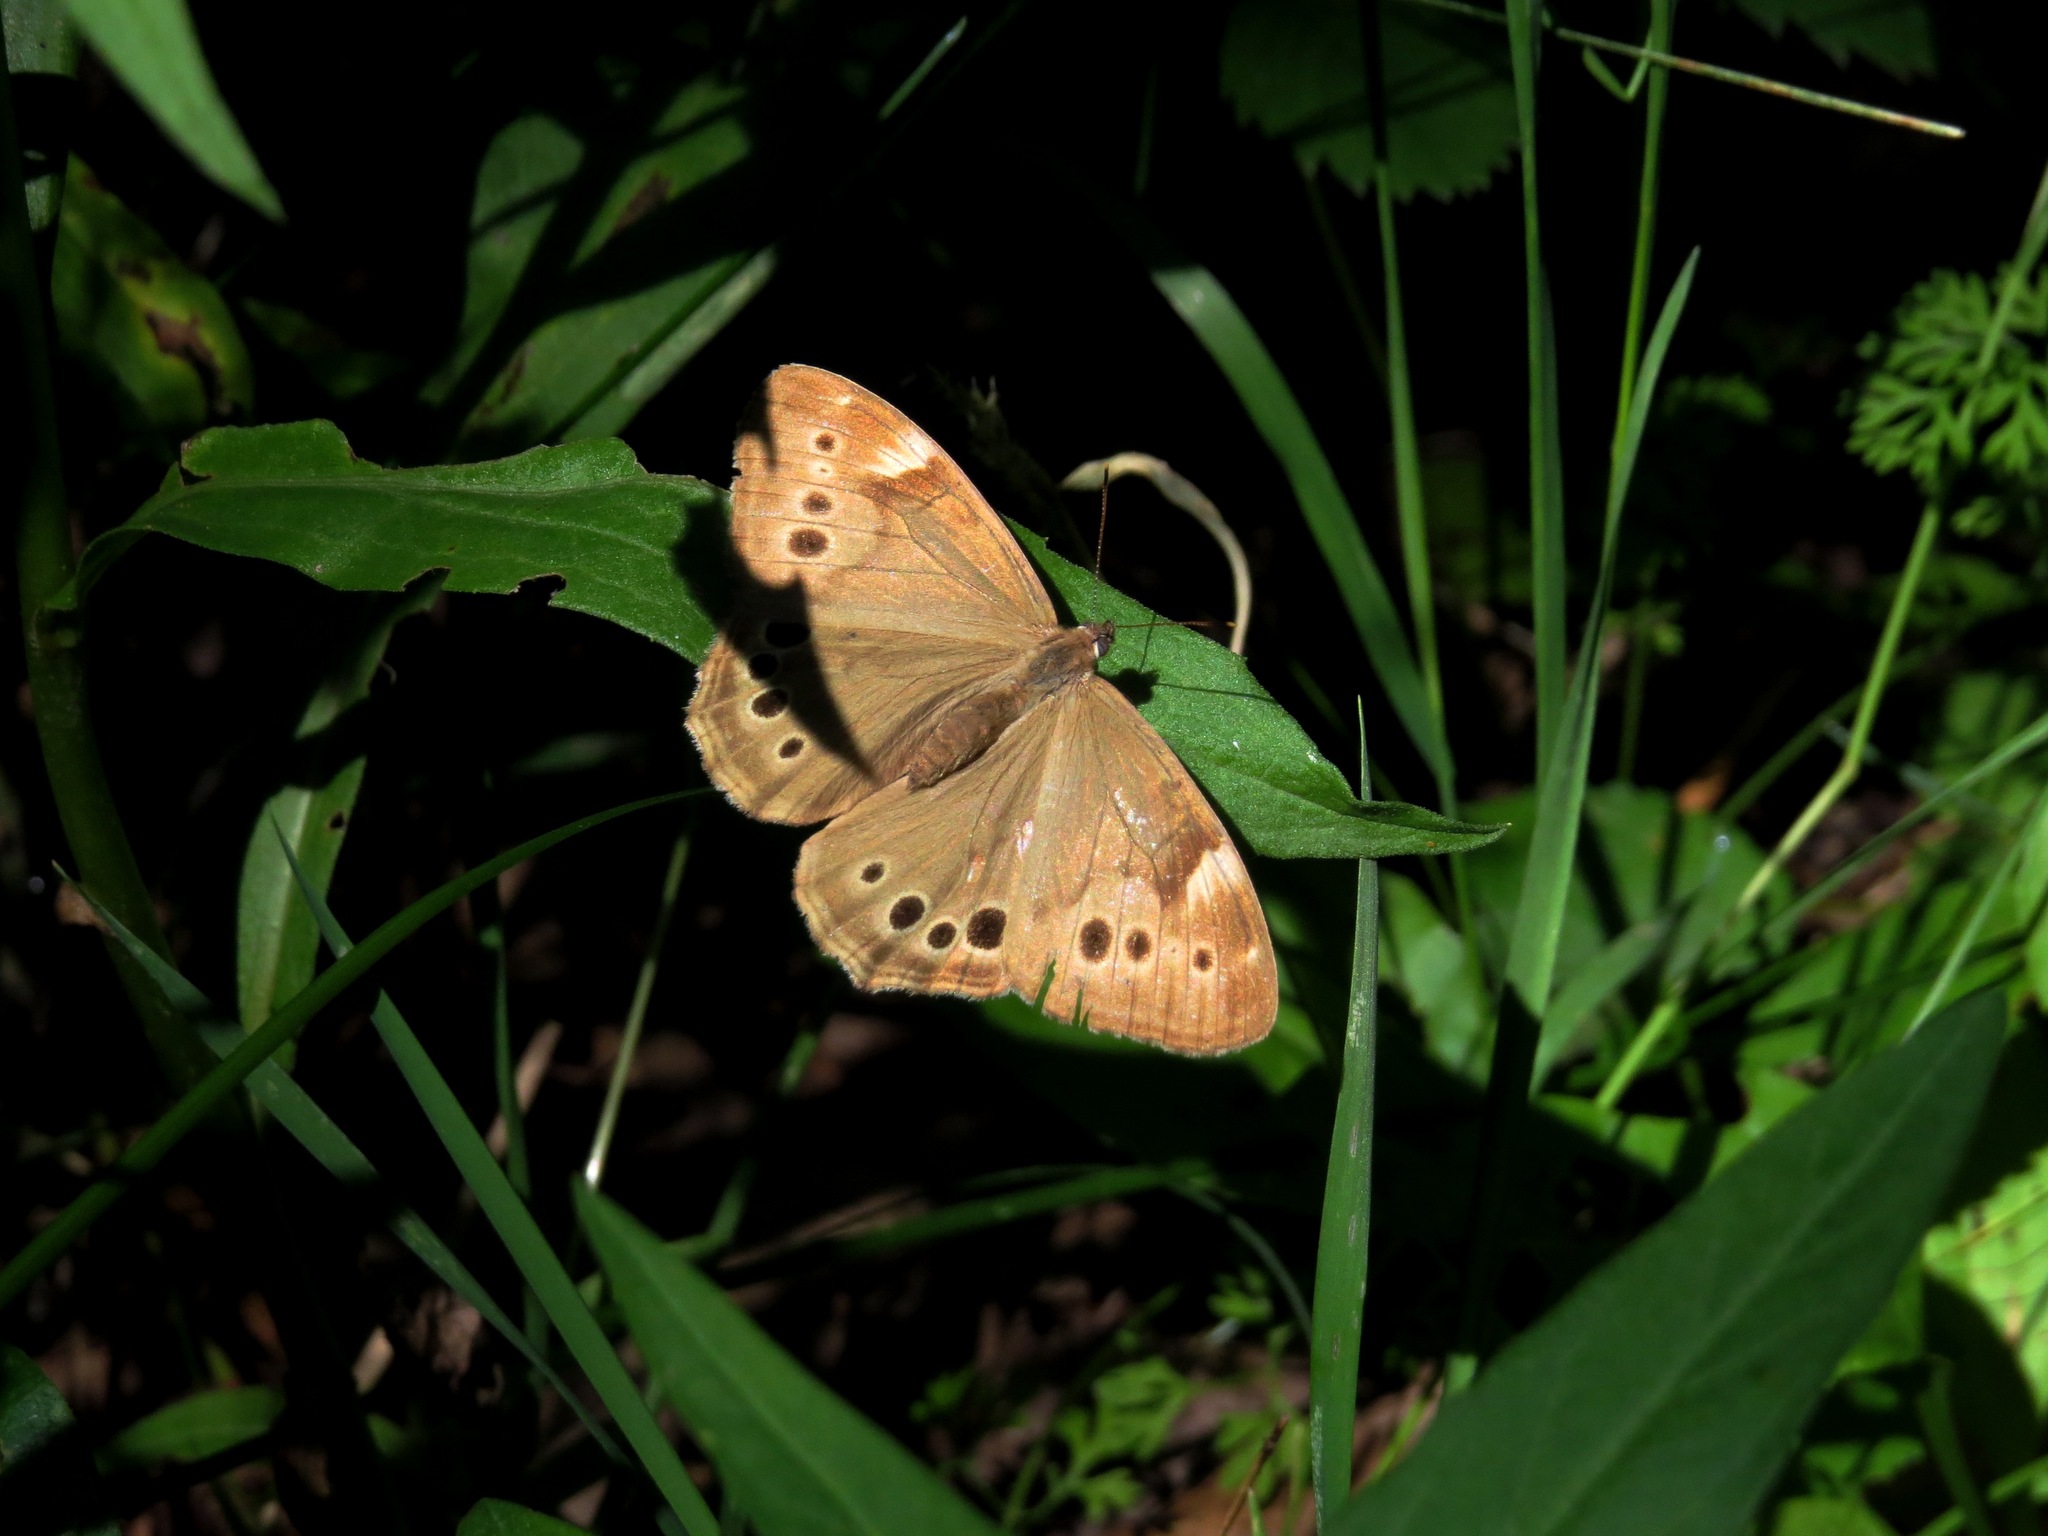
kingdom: Animalia
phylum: Arthropoda
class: Insecta
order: Lepidoptera
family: Nymphalidae
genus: Lethe
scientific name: Lethe anthedon
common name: Northern pearly-eye
